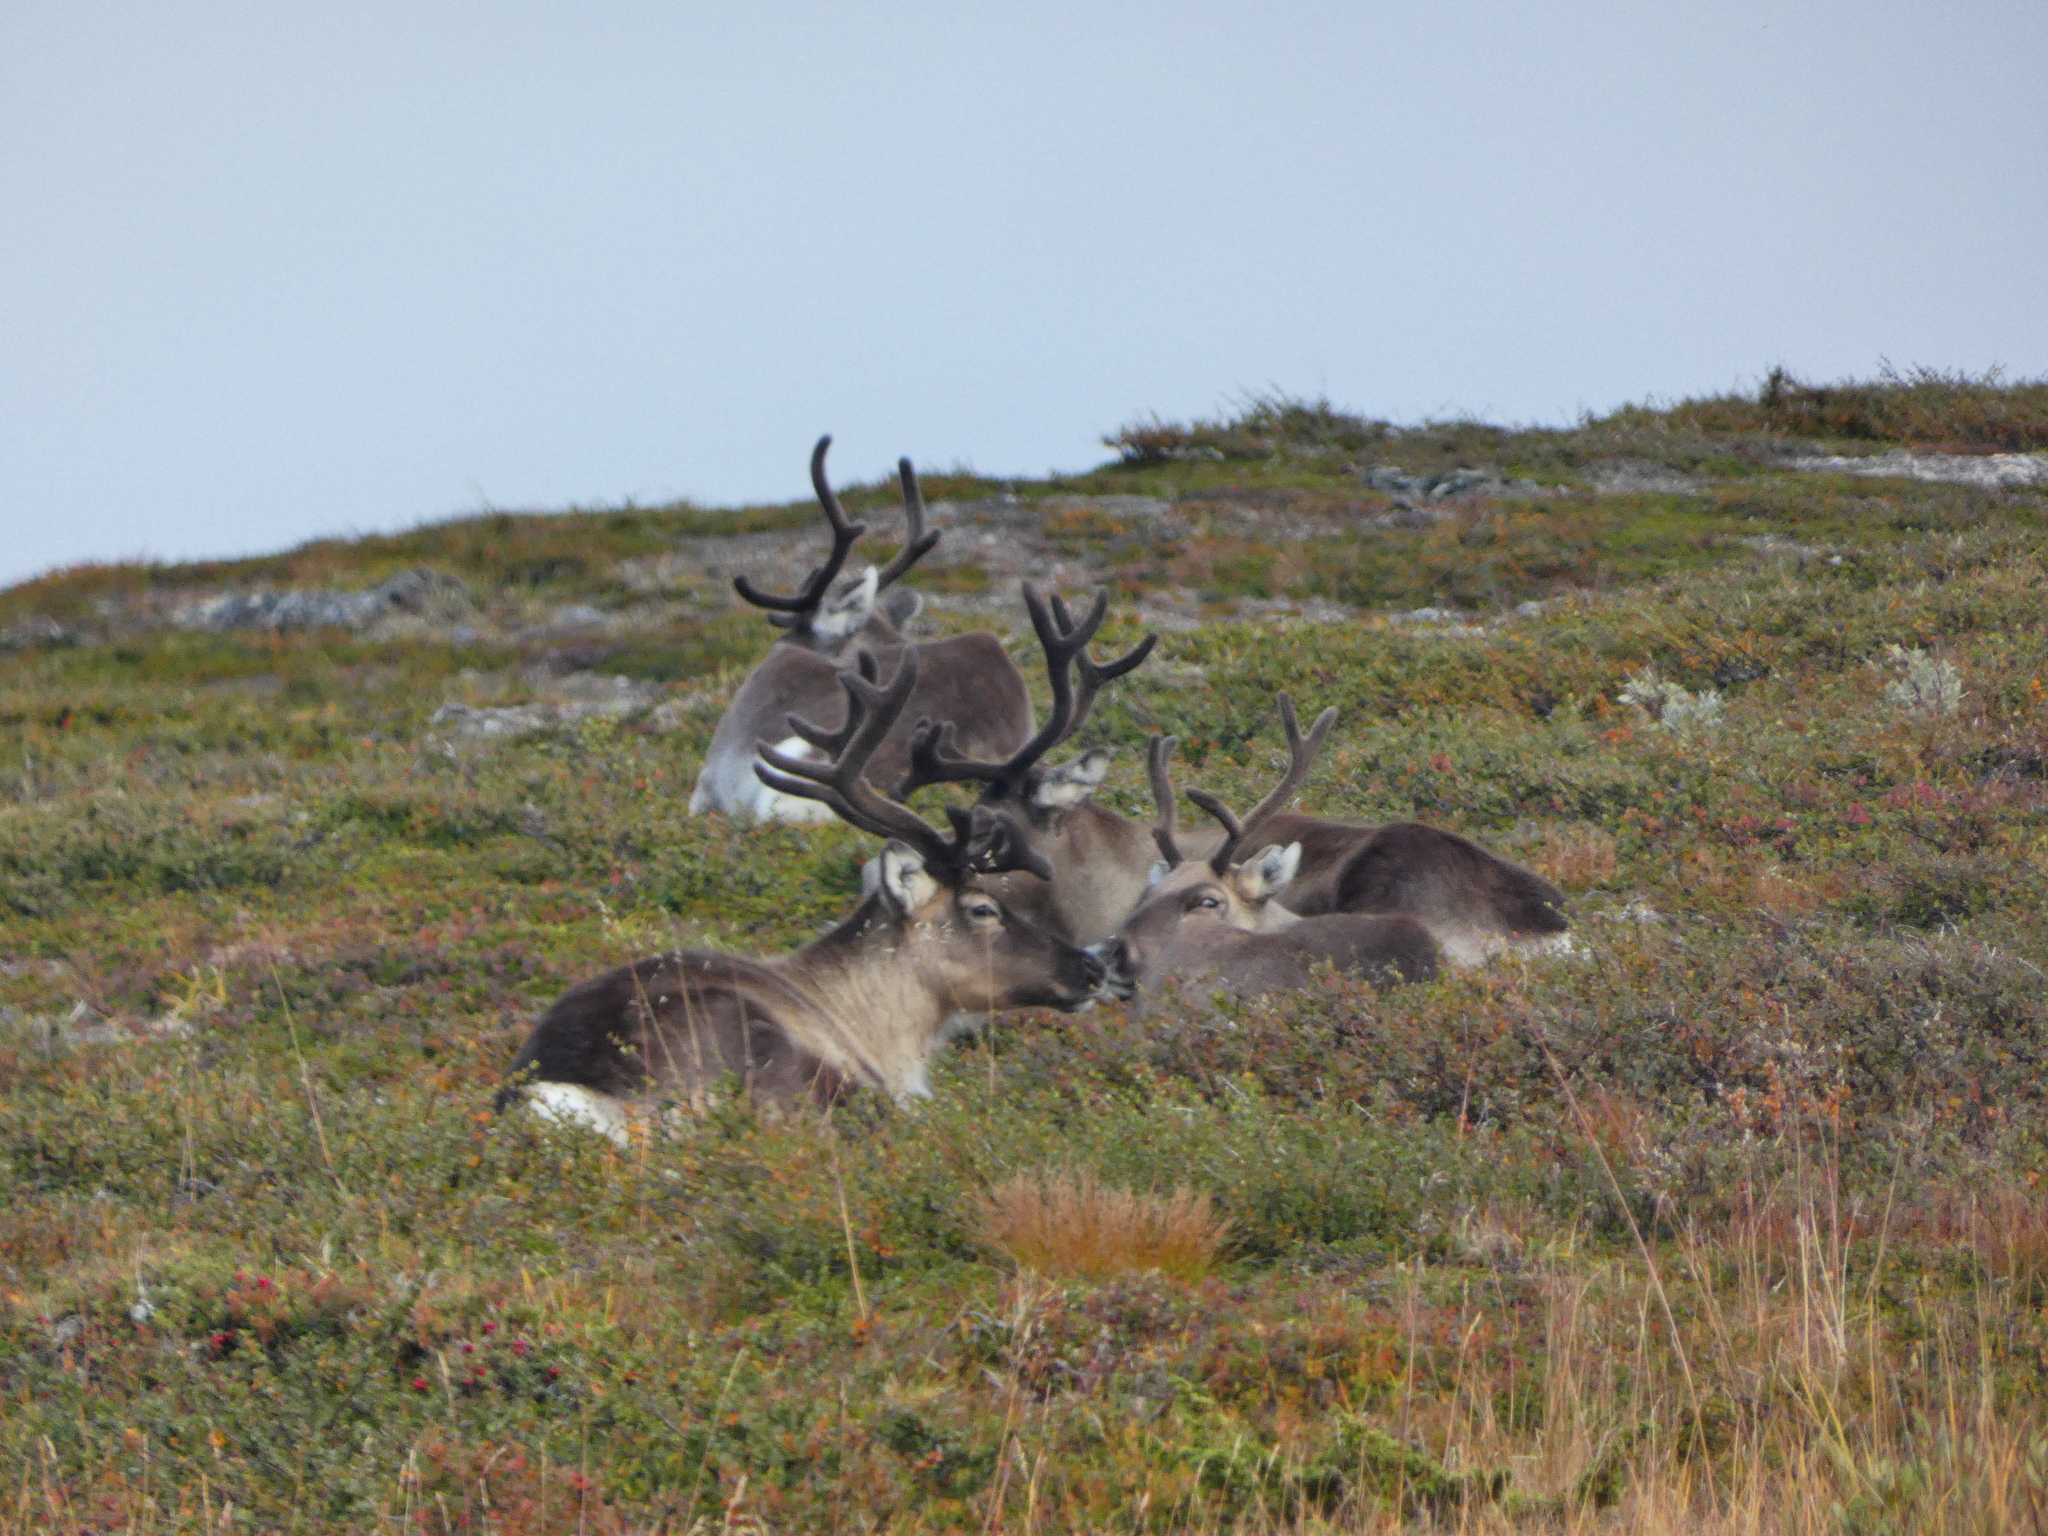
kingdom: Animalia
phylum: Chordata
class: Mammalia
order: Artiodactyla
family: Cervidae
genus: Rangifer
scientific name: Rangifer tarandus
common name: Reindeer
